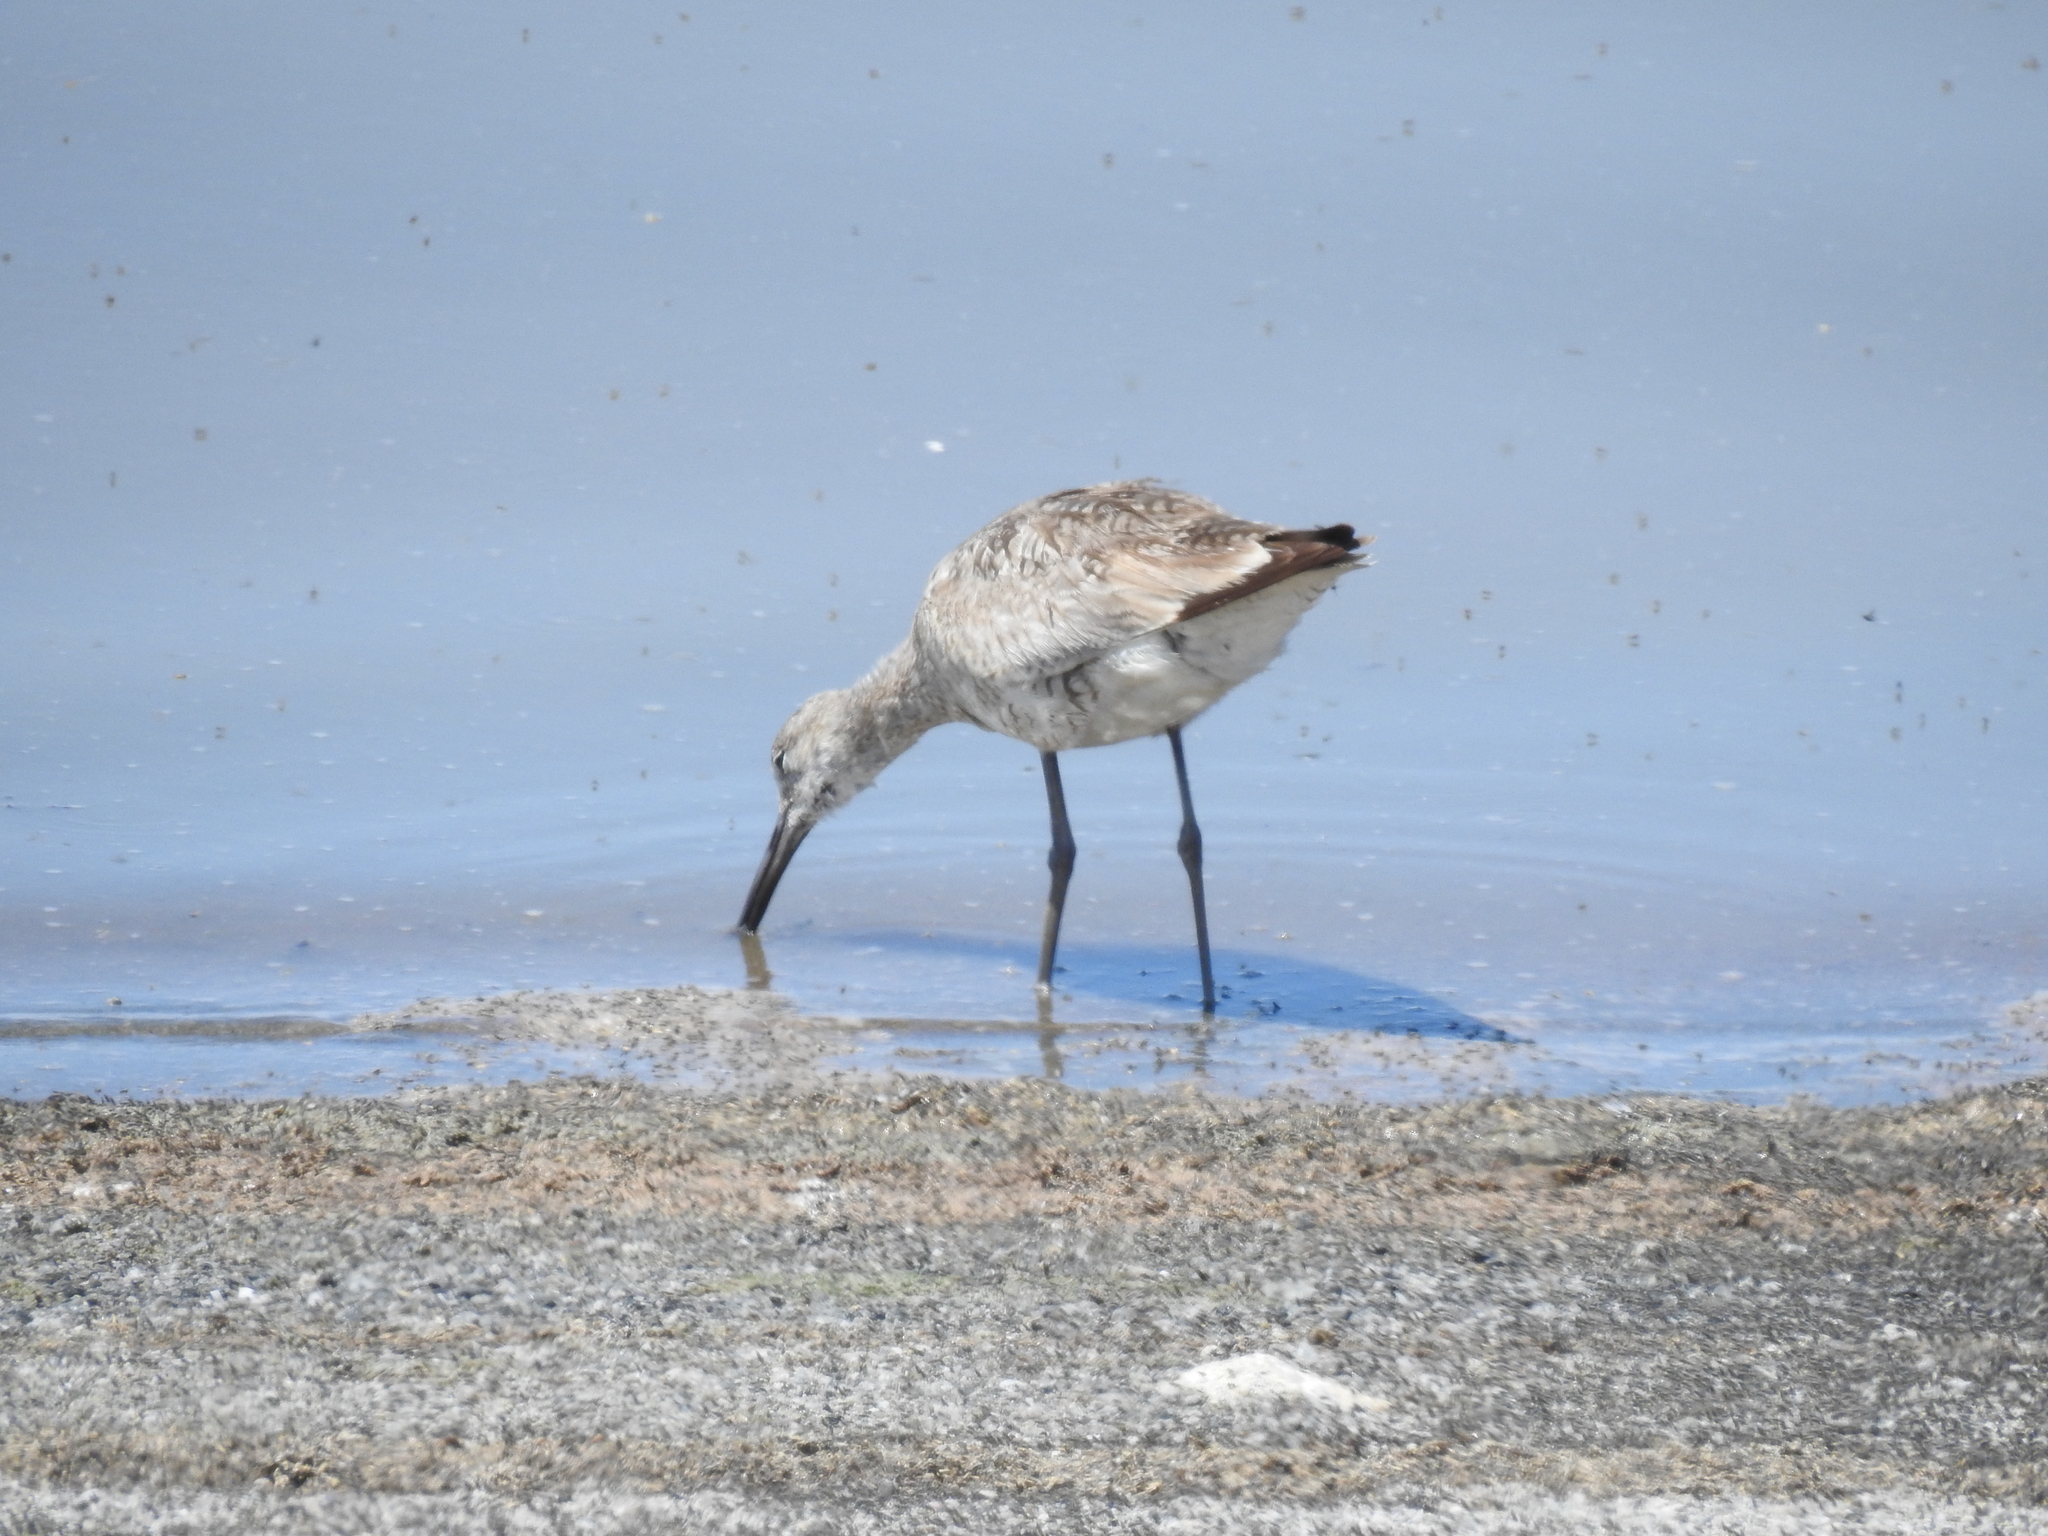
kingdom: Animalia
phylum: Chordata
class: Aves
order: Charadriiformes
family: Scolopacidae
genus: Tringa
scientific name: Tringa semipalmata
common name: Willet
